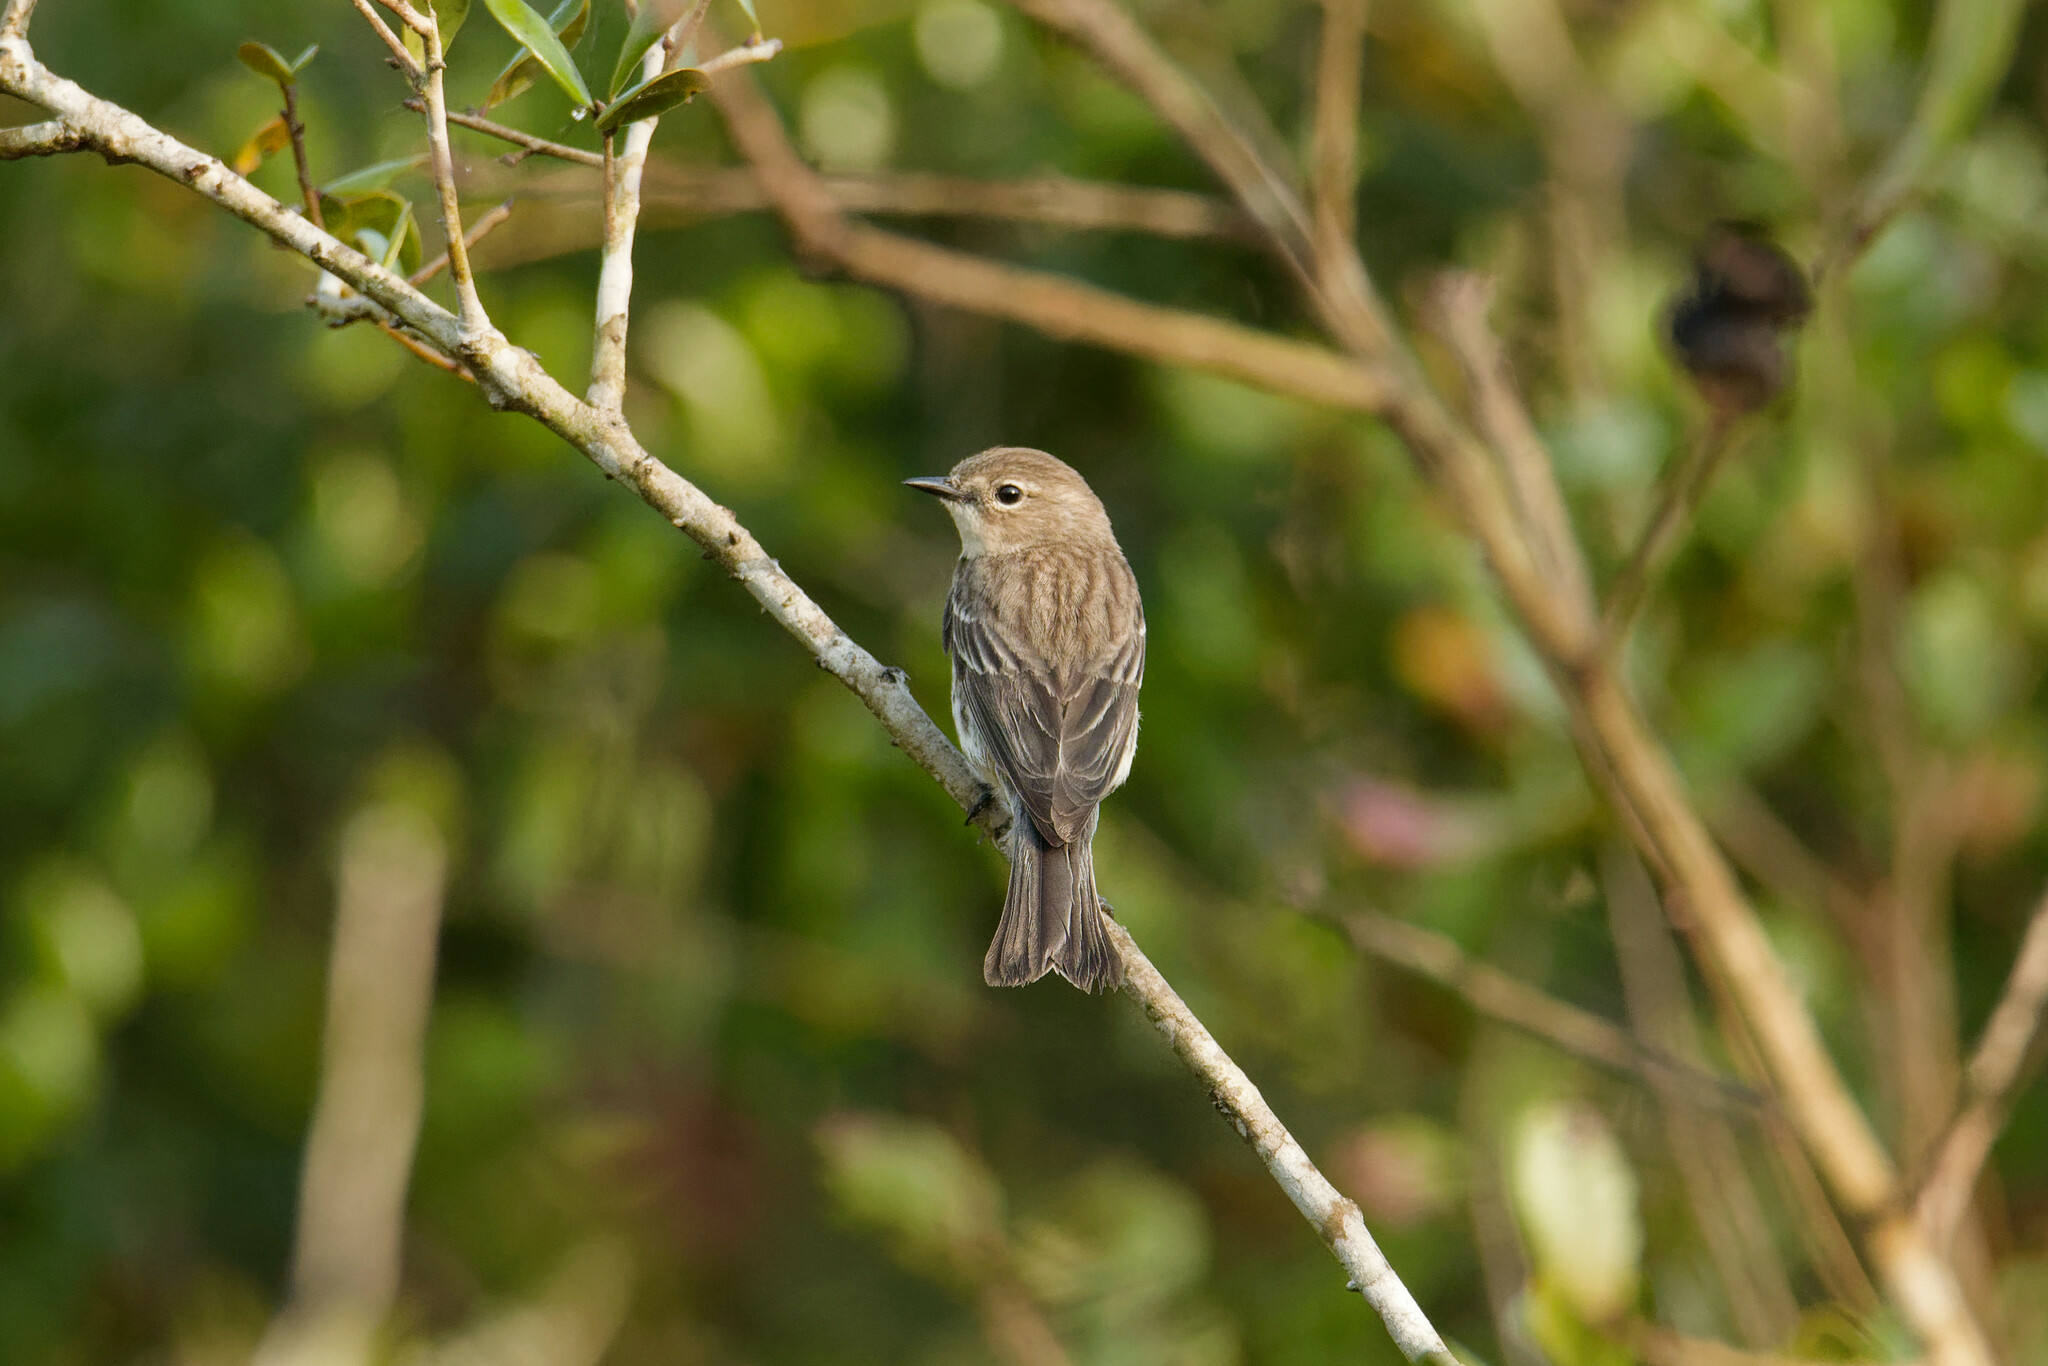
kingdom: Animalia
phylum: Chordata
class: Aves
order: Passeriformes
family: Parulidae
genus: Setophaga
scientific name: Setophaga coronata
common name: Myrtle warbler
